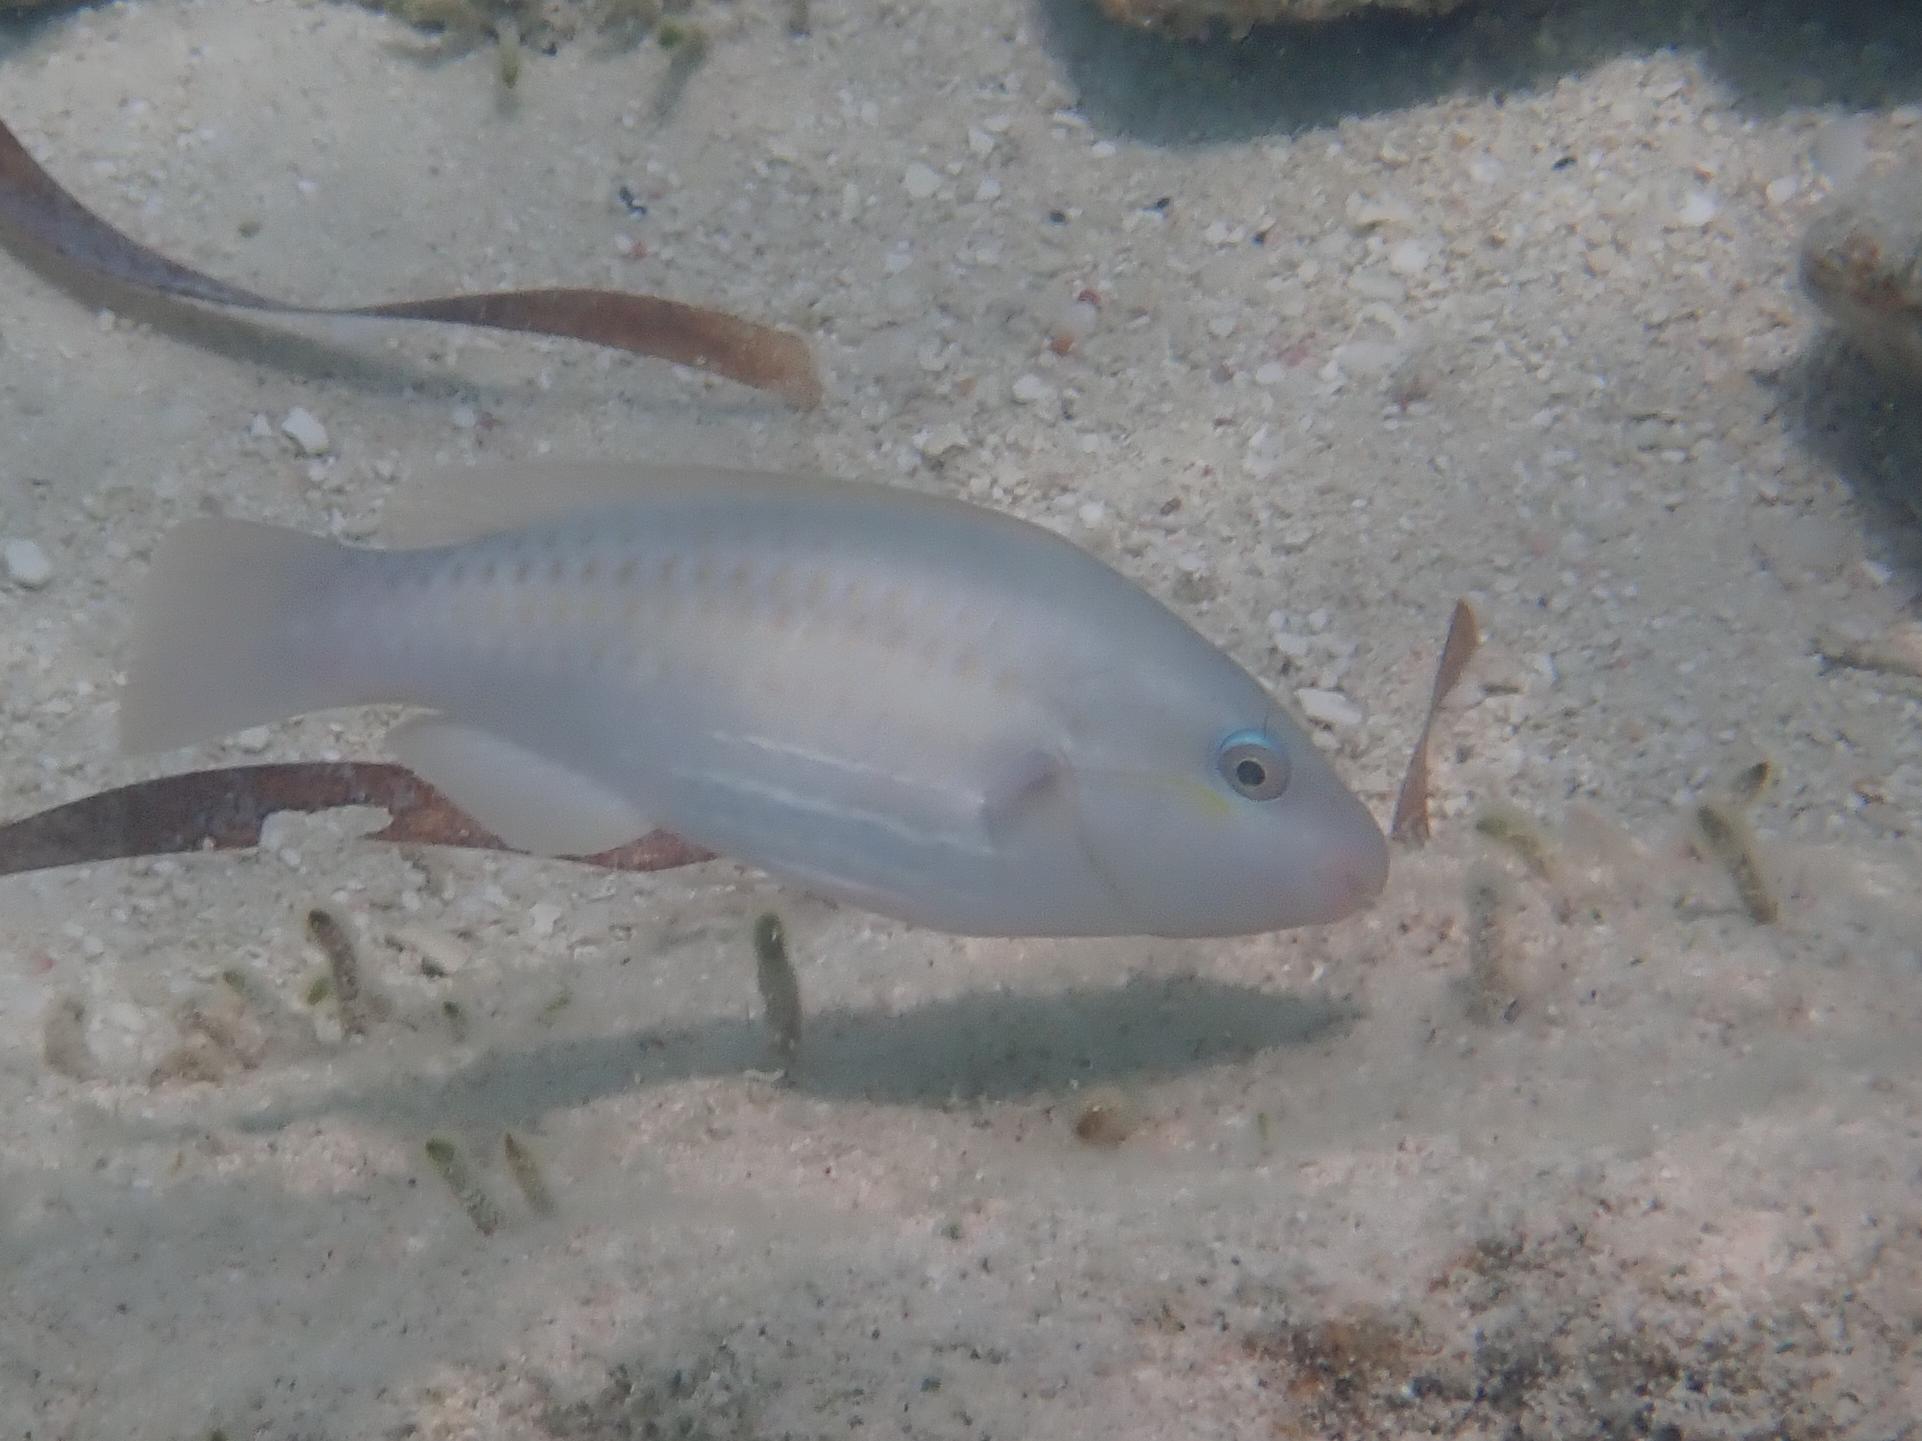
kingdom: Animalia
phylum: Chordata
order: Perciformes
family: Scaridae
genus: Scarus
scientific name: Scarus iseri
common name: Striped parrotfish
